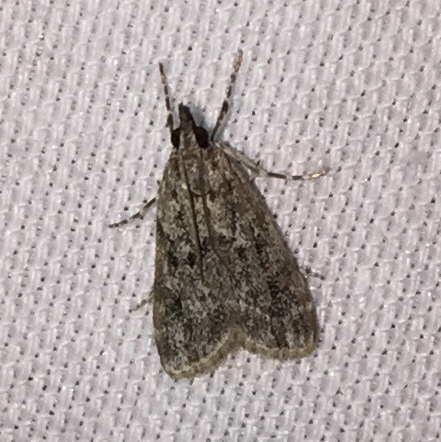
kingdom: Animalia
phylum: Arthropoda
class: Insecta
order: Lepidoptera
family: Crambidae
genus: Eudonia
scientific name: Eudonia heterosalis
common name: Mcdunnough's eudonia
